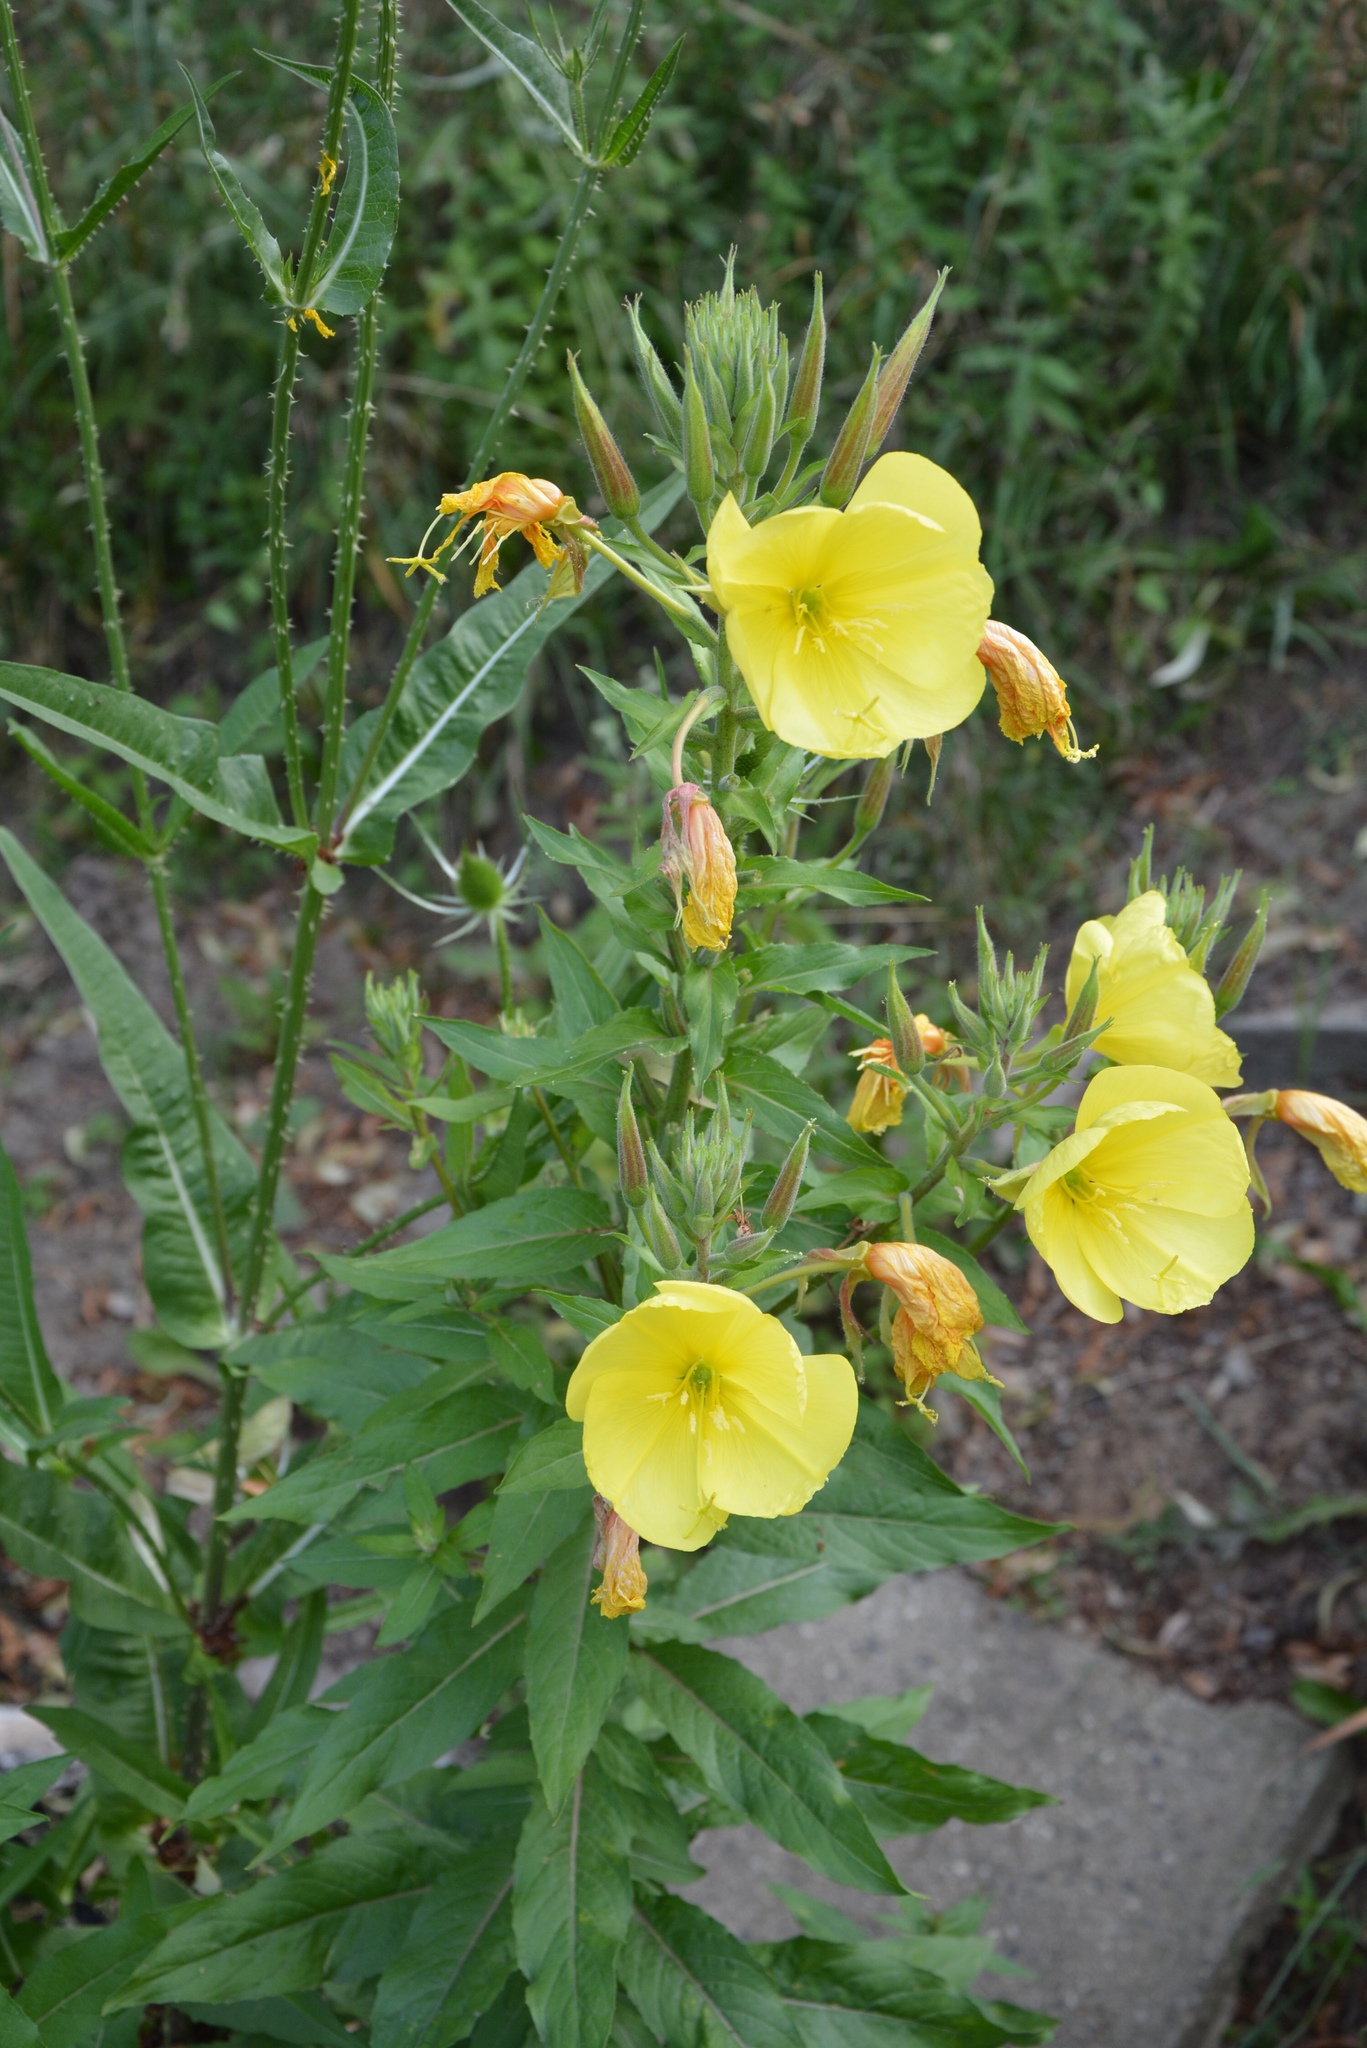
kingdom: Plantae
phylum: Tracheophyta
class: Magnoliopsida
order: Myrtales
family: Onagraceae
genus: Oenothera
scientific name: Oenothera glazioviana
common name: Large-flowered evening-primrose
